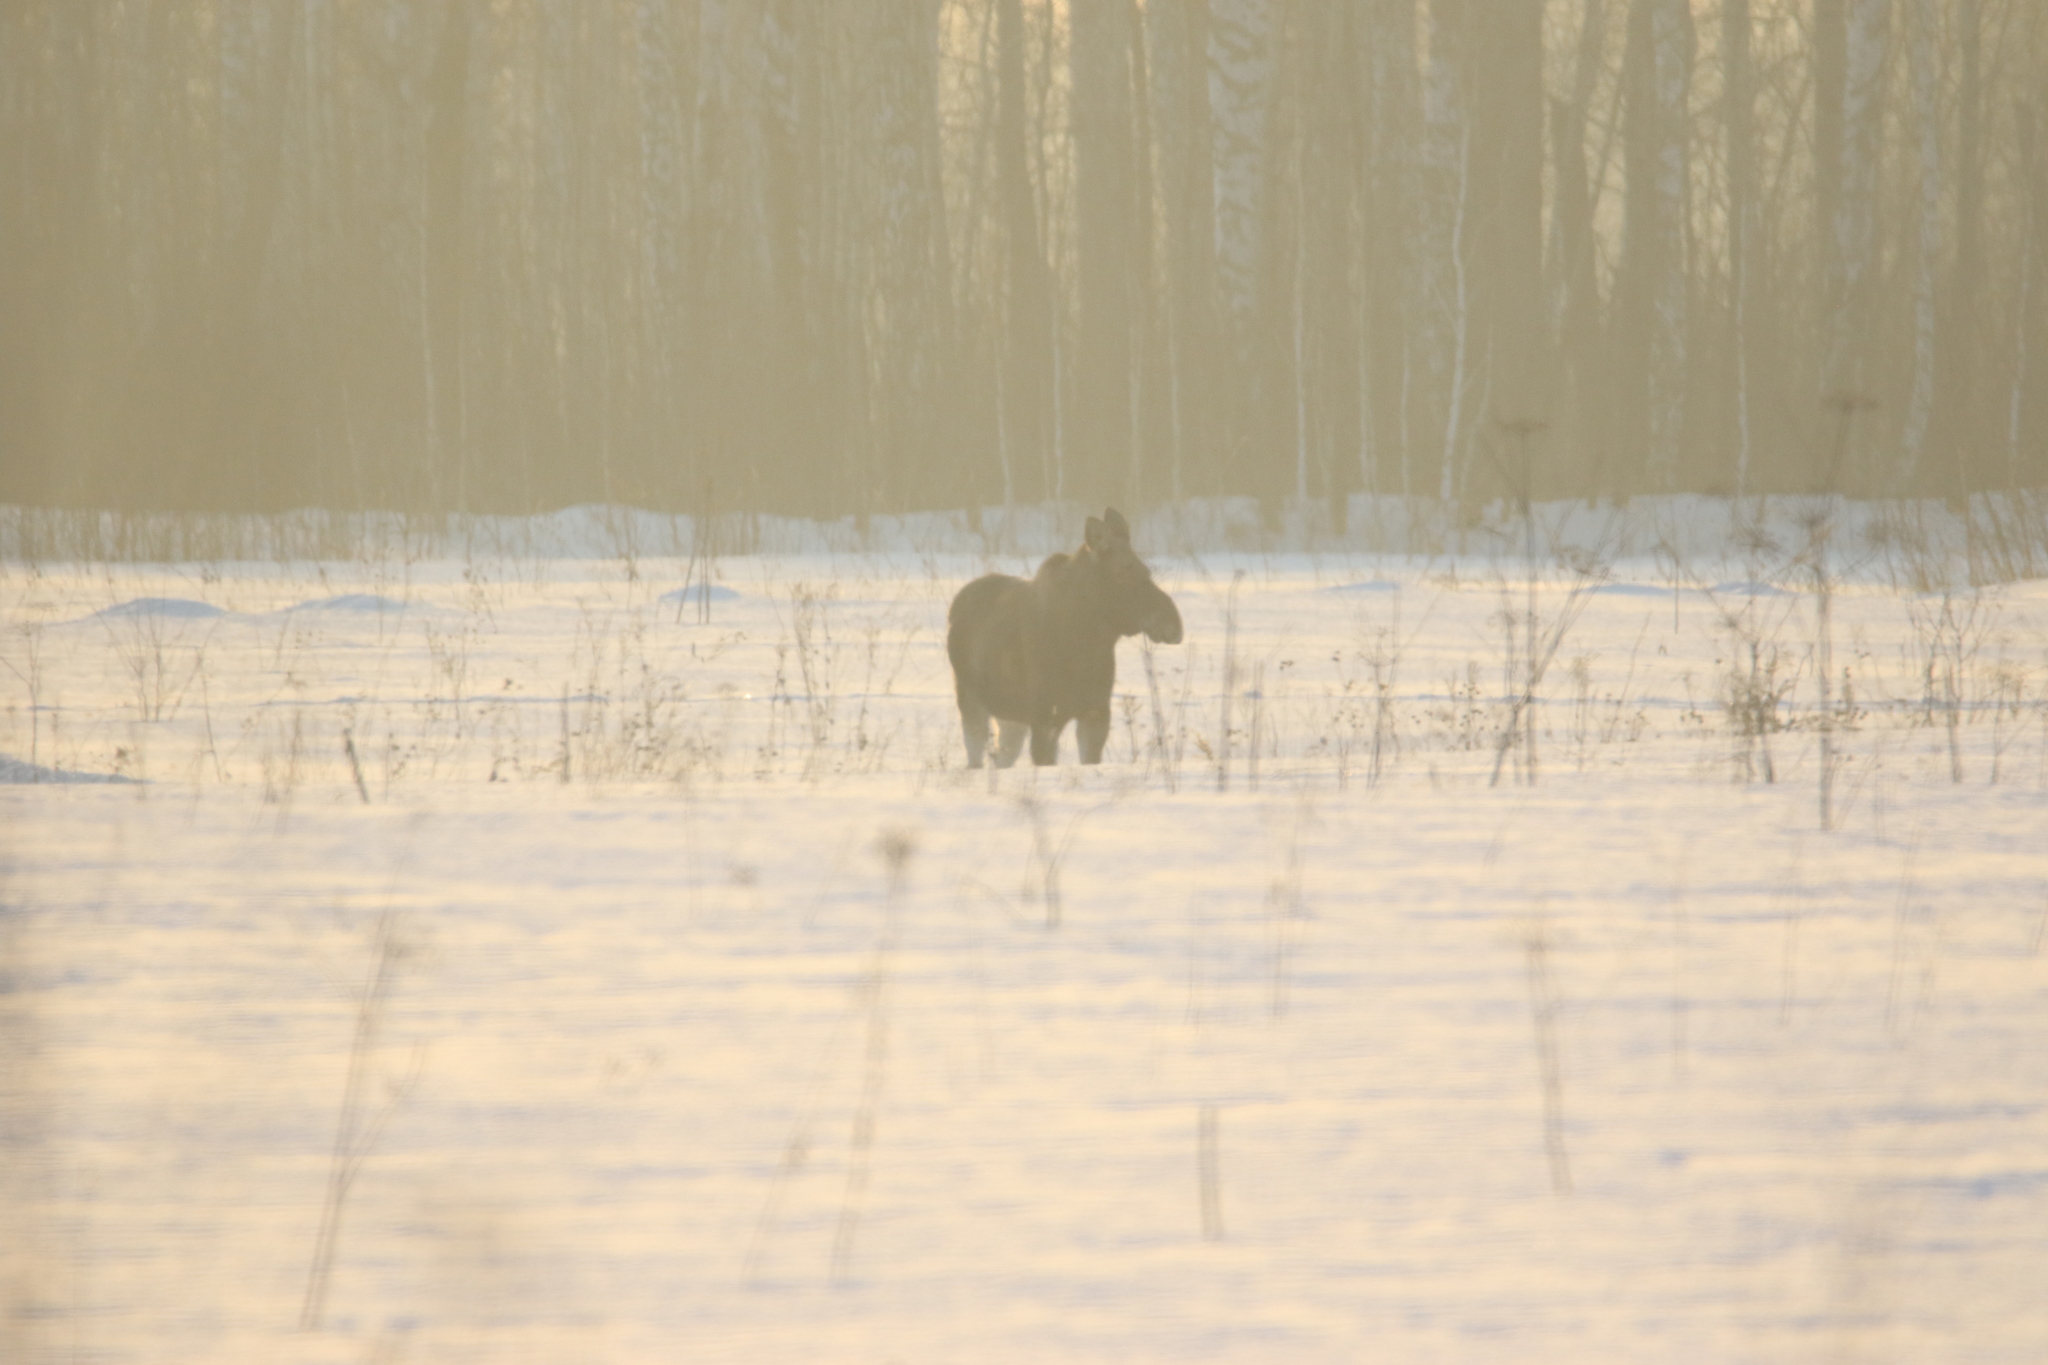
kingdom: Animalia
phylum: Chordata
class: Mammalia
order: Artiodactyla
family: Cervidae
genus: Alces
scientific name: Alces alces
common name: Moose
